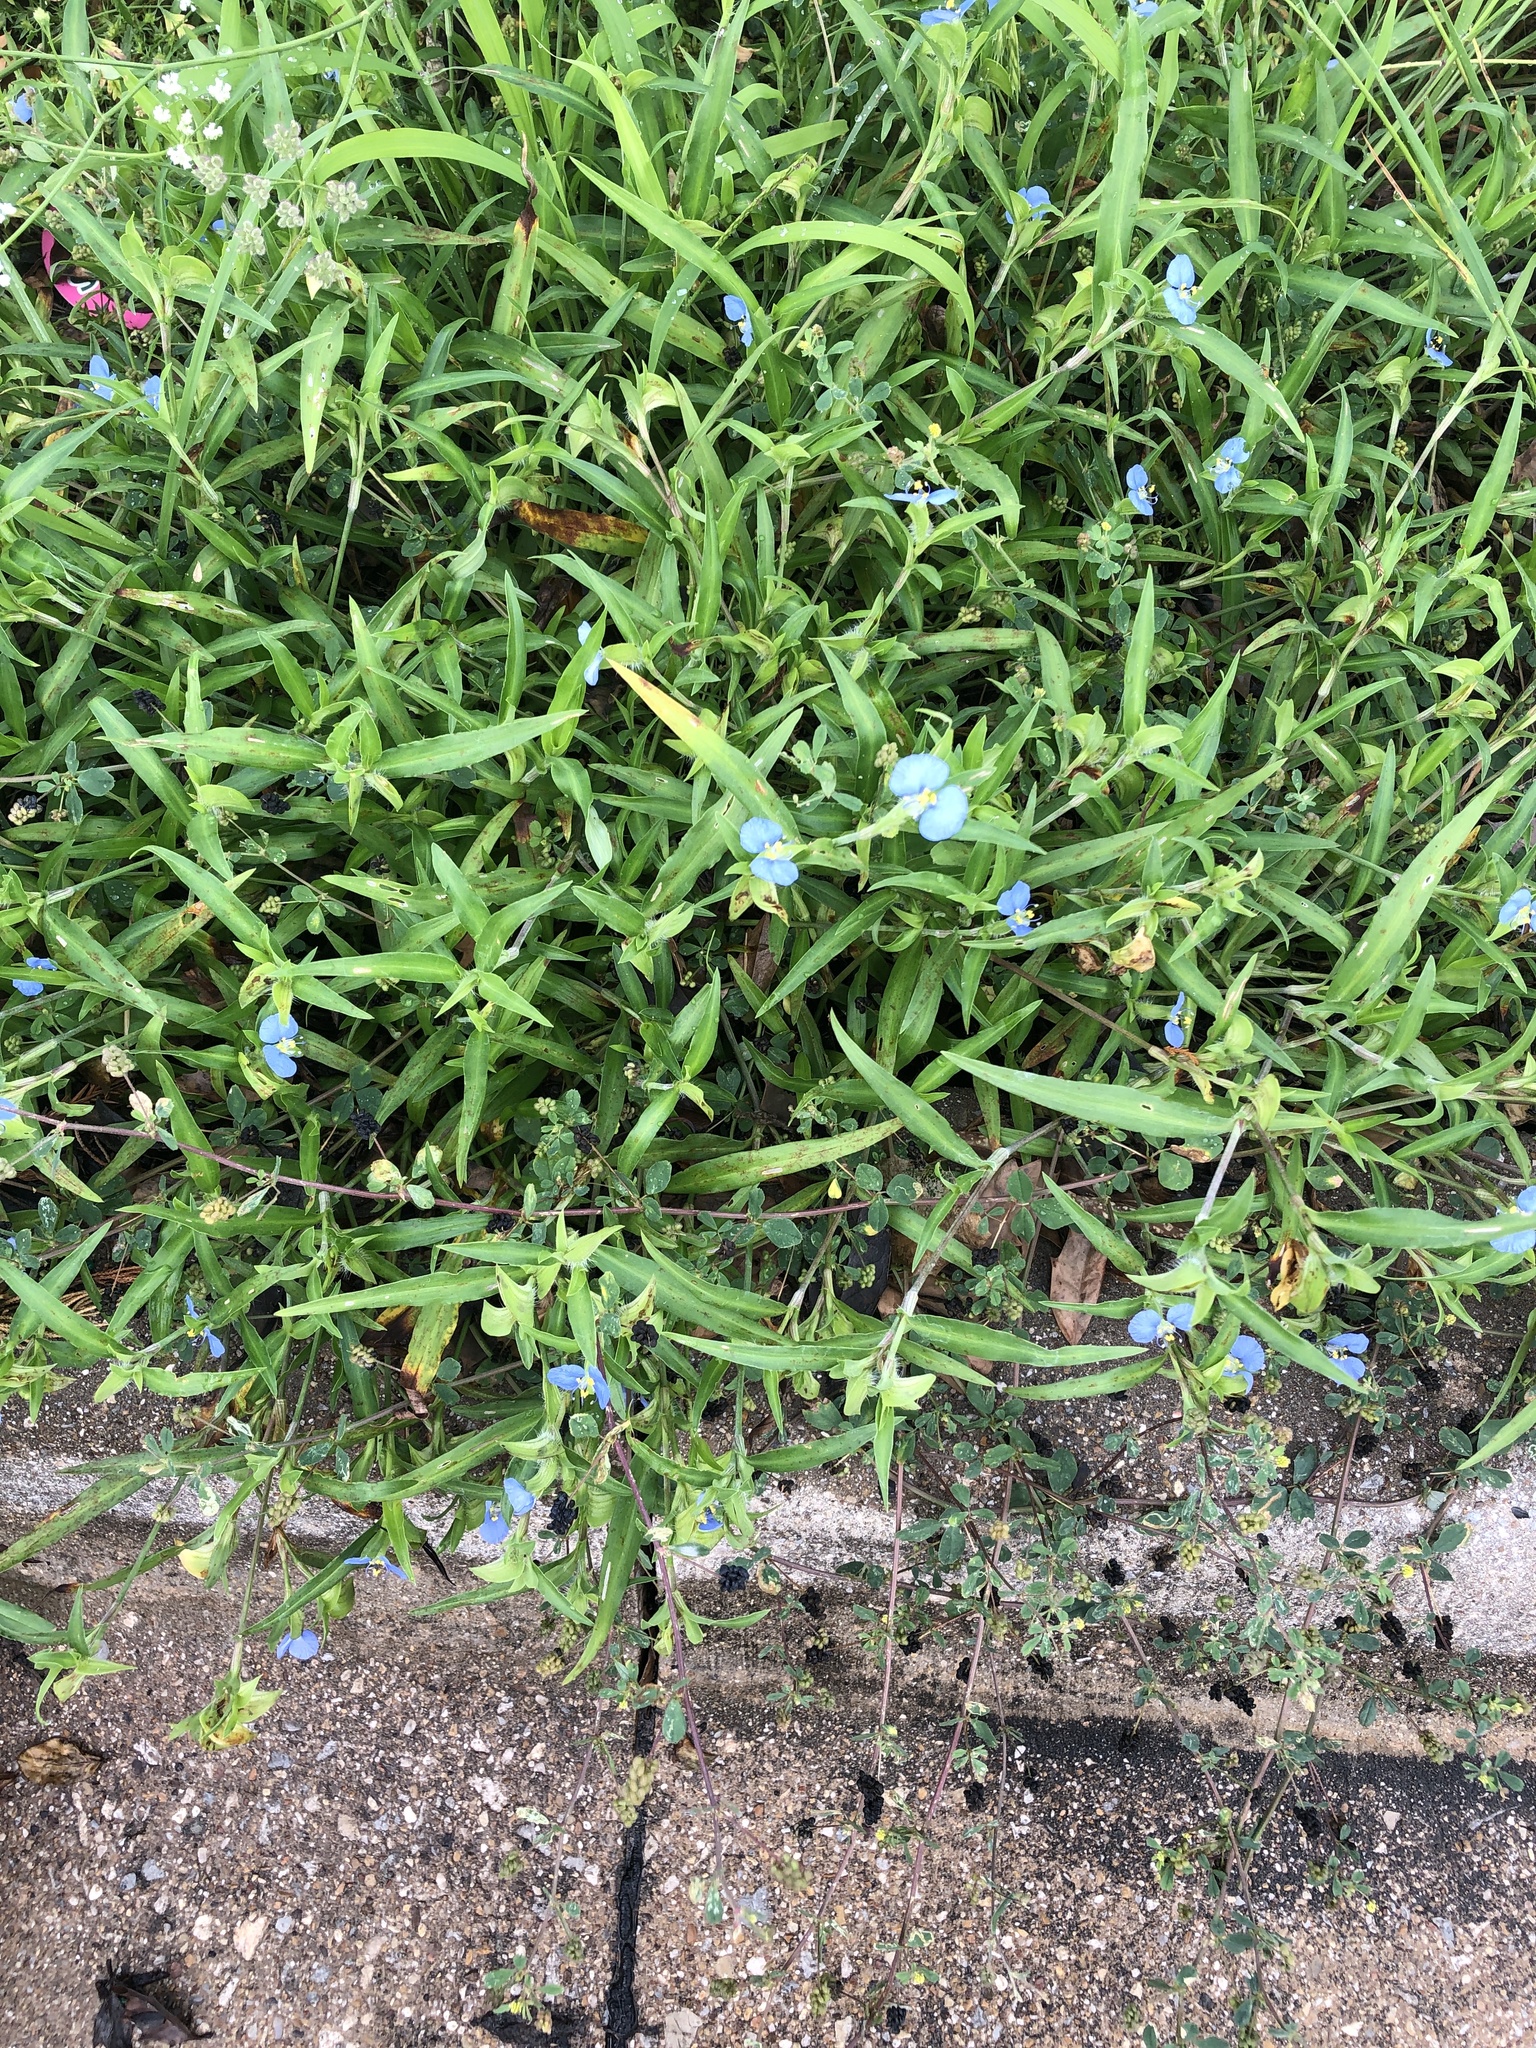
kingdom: Plantae
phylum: Tracheophyta
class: Liliopsida
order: Commelinales
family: Commelinaceae
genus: Commelina
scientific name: Commelina erecta
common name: Blousel blommetjie
